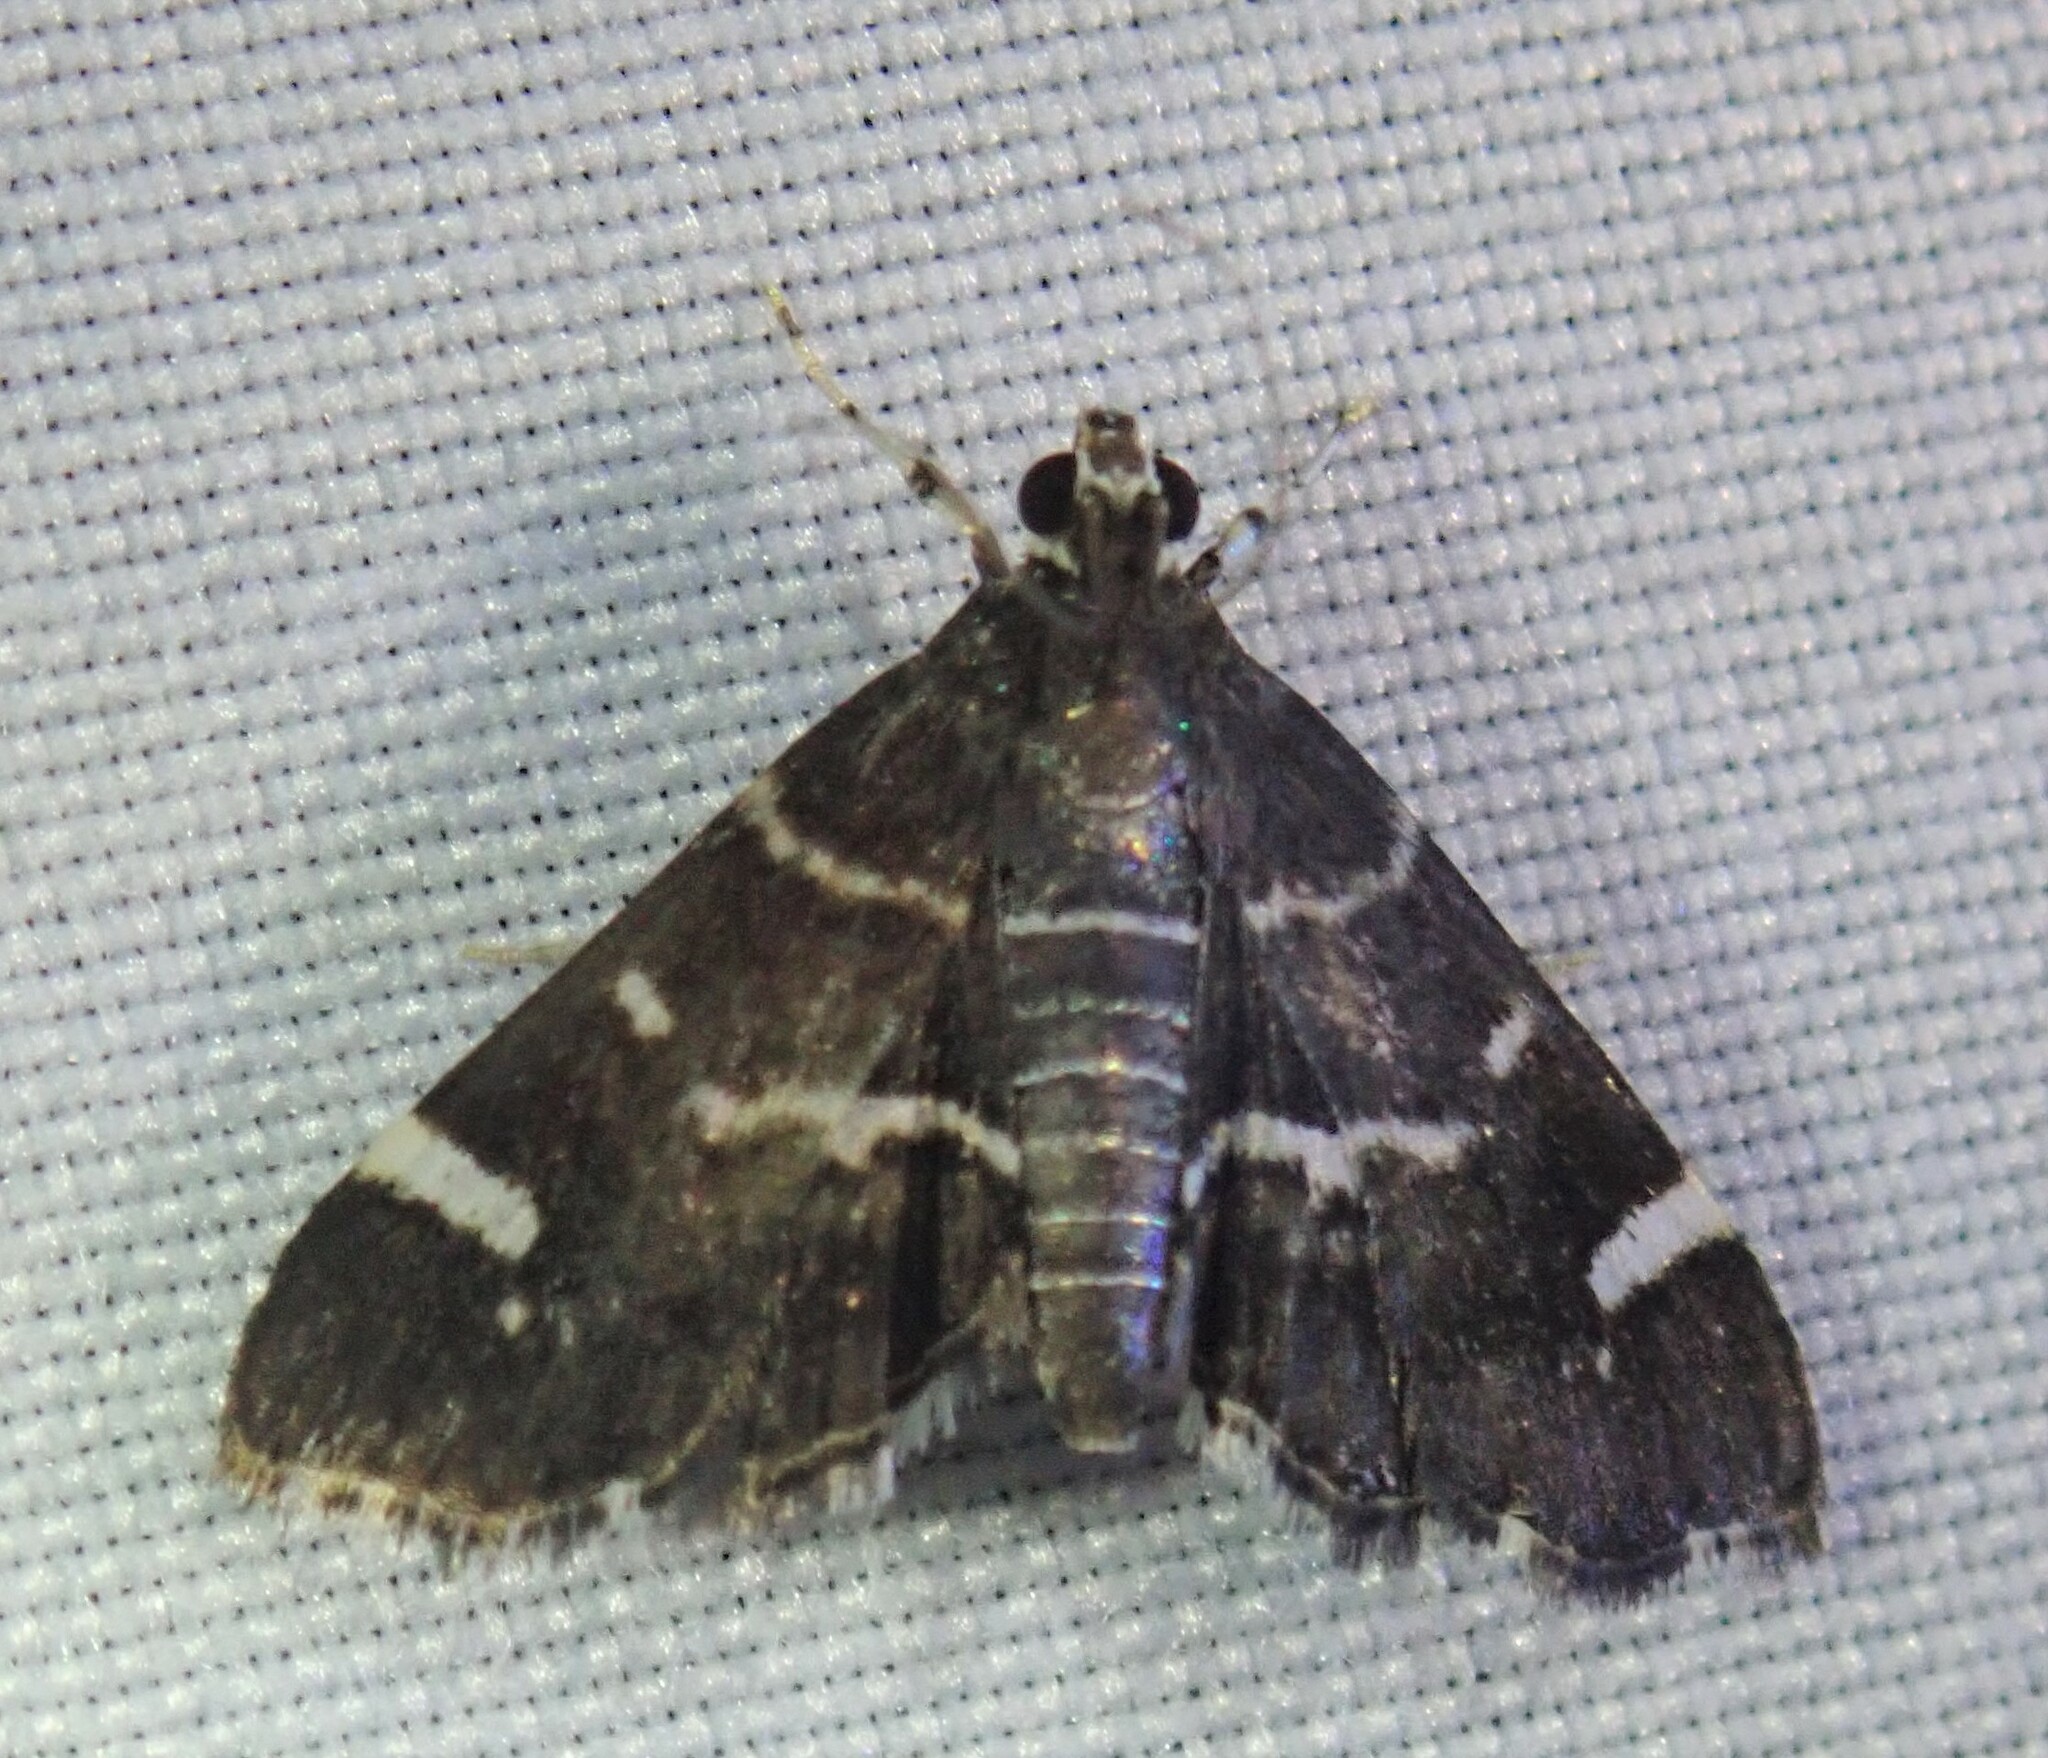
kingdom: Animalia
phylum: Arthropoda
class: Insecta
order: Lepidoptera
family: Crambidae
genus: Hymenia
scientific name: Hymenia perspectalis
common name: Spotted beet webworm
